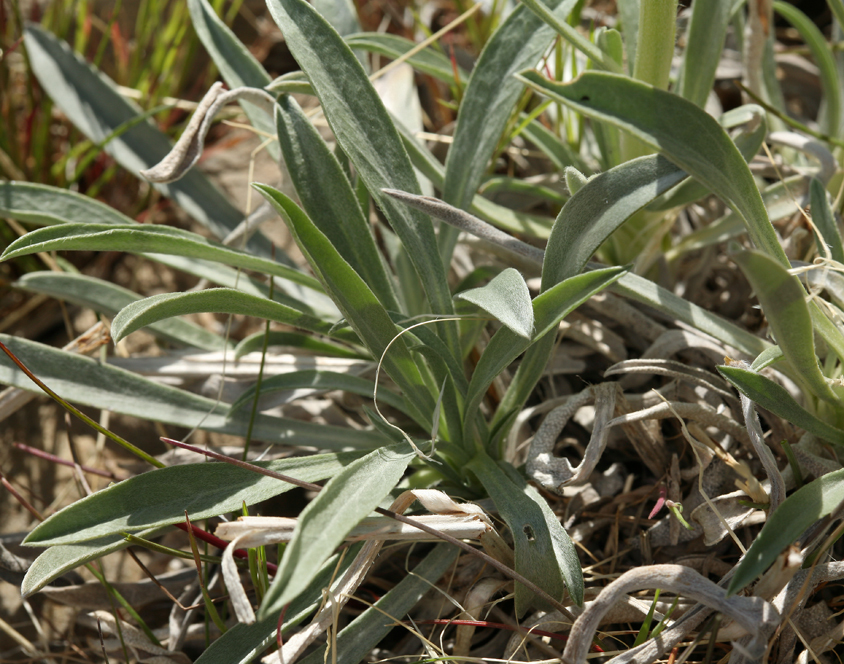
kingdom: Plantae
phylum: Tracheophyta
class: Magnoliopsida
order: Boraginales
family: Boraginaceae
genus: Oreocarya
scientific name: Oreocarya confertiflora
